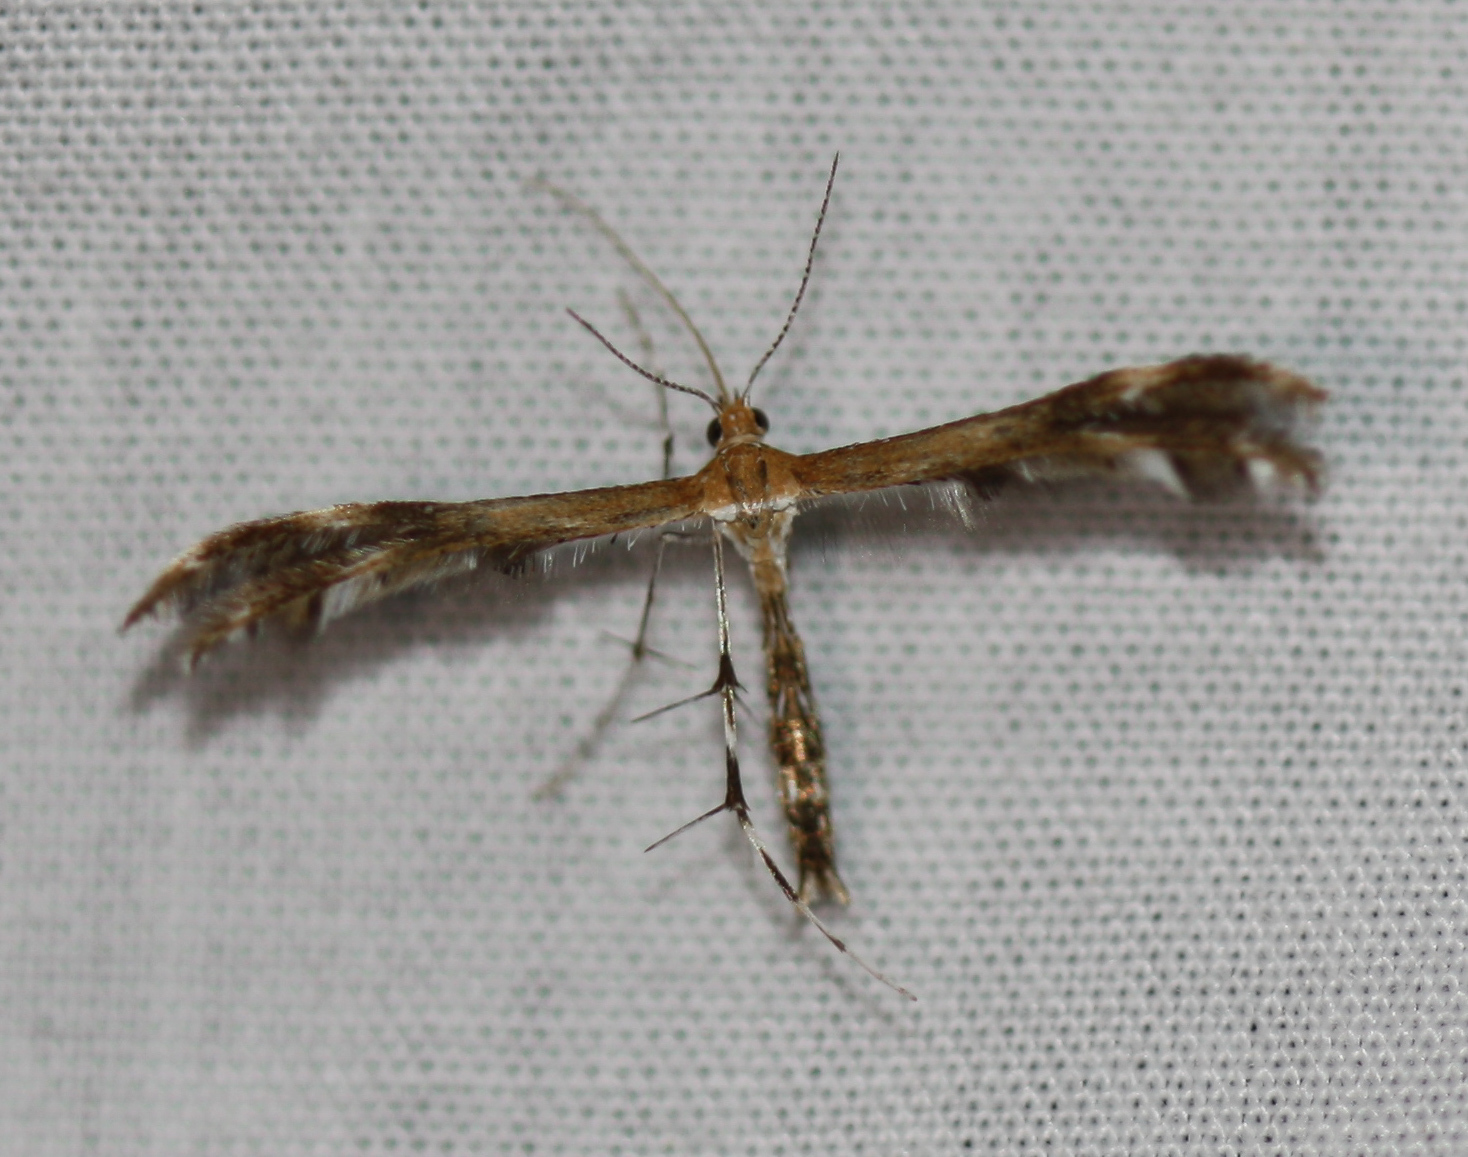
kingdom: Animalia
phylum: Arthropoda
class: Insecta
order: Lepidoptera
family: Pterophoridae
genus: Dejongia
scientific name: Dejongia lobidactylus
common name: Lobed plume moth
